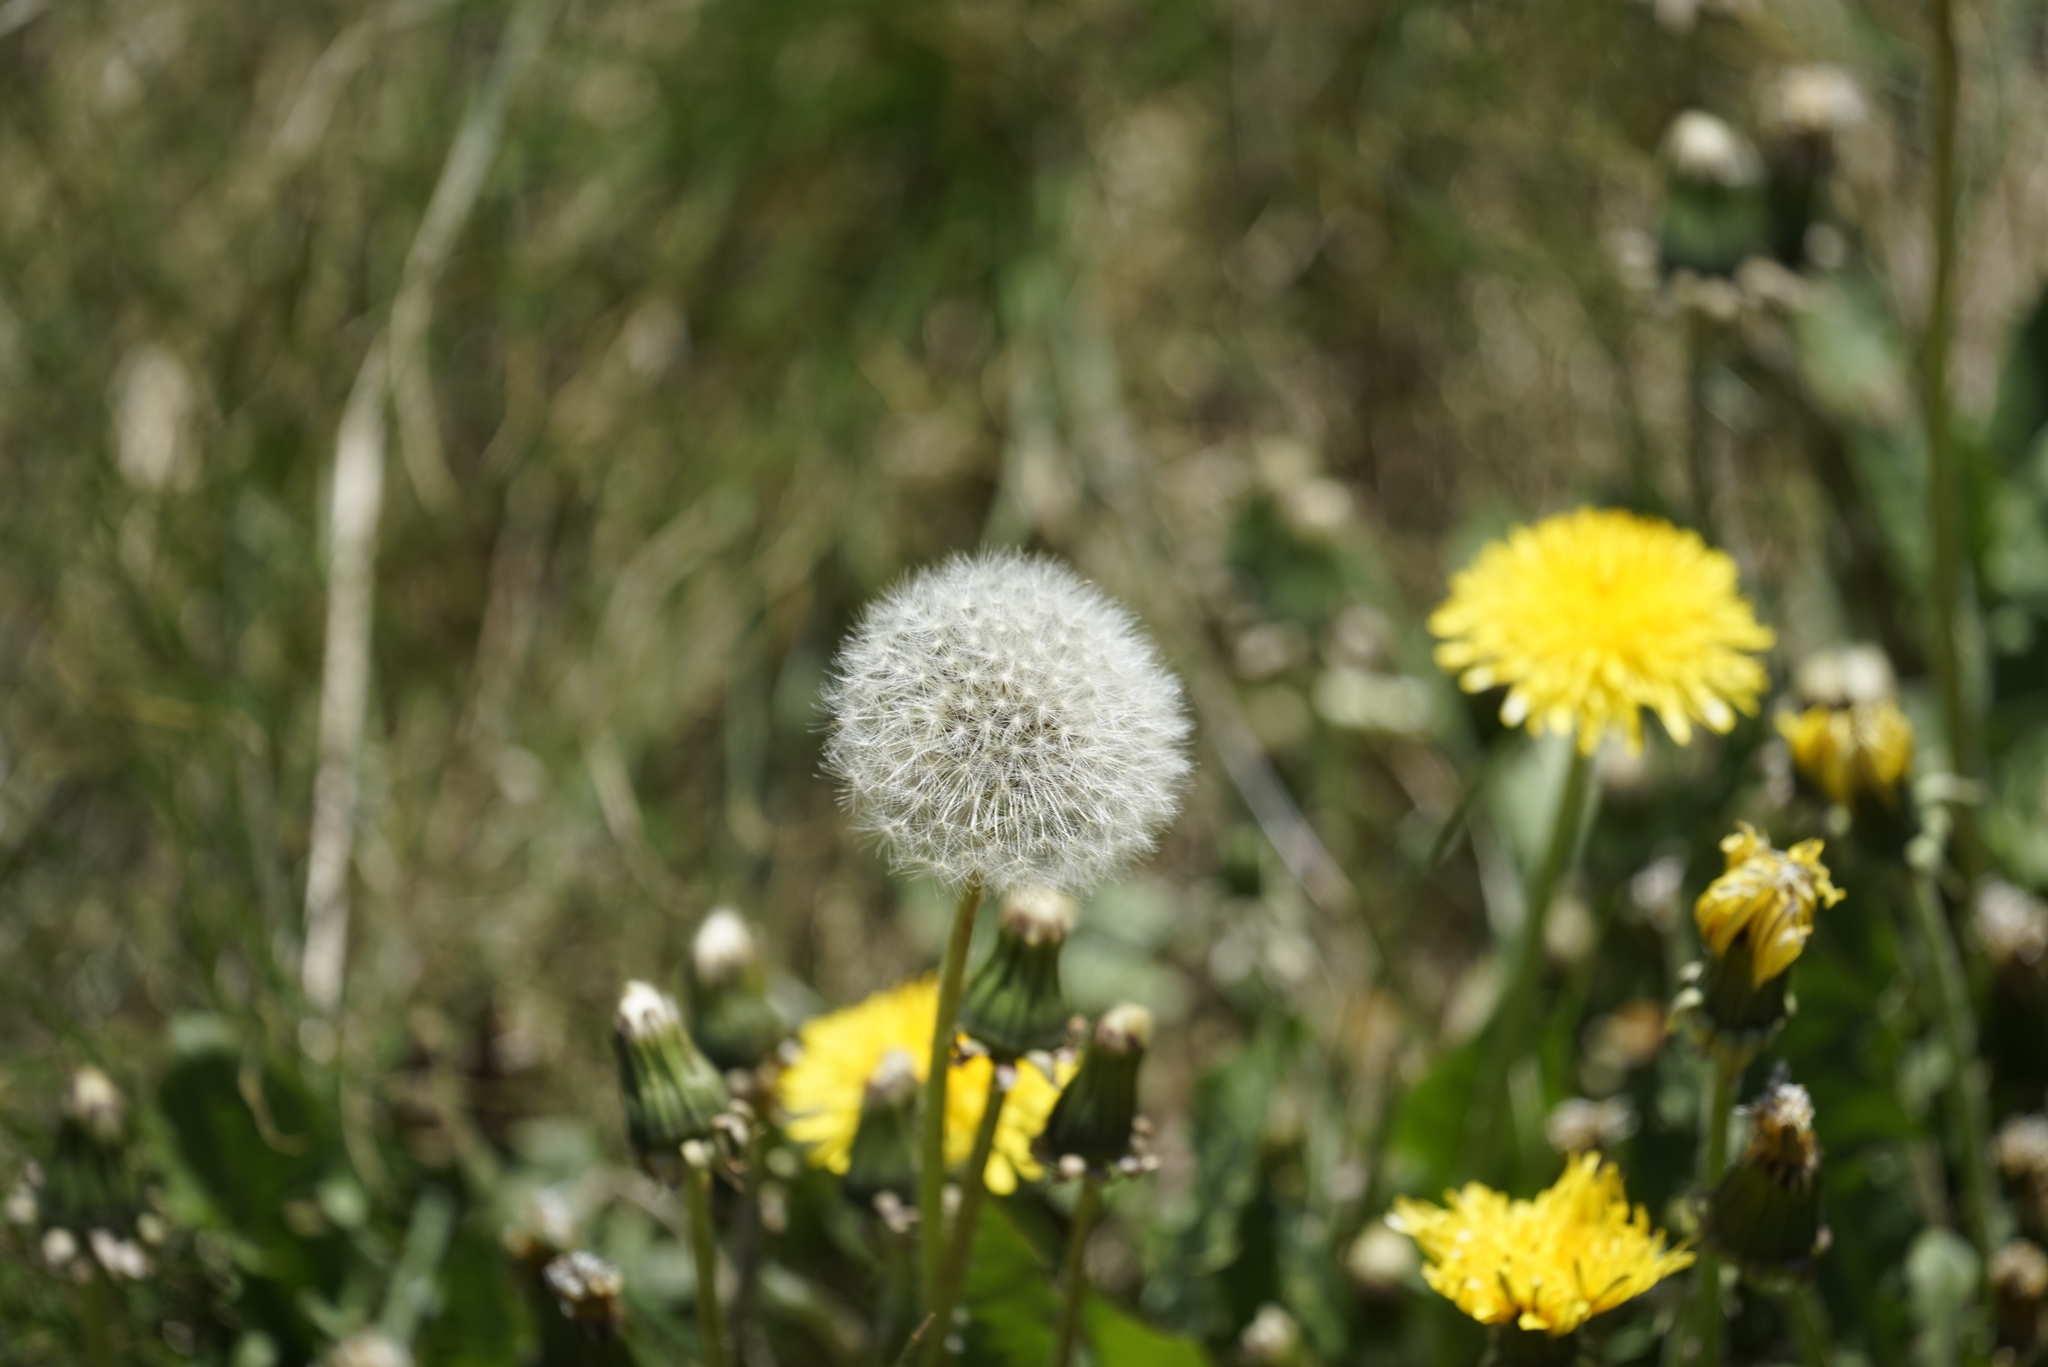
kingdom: Plantae
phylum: Tracheophyta
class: Magnoliopsida
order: Asterales
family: Asteraceae
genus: Taraxacum
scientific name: Taraxacum officinale
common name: Common dandelion
